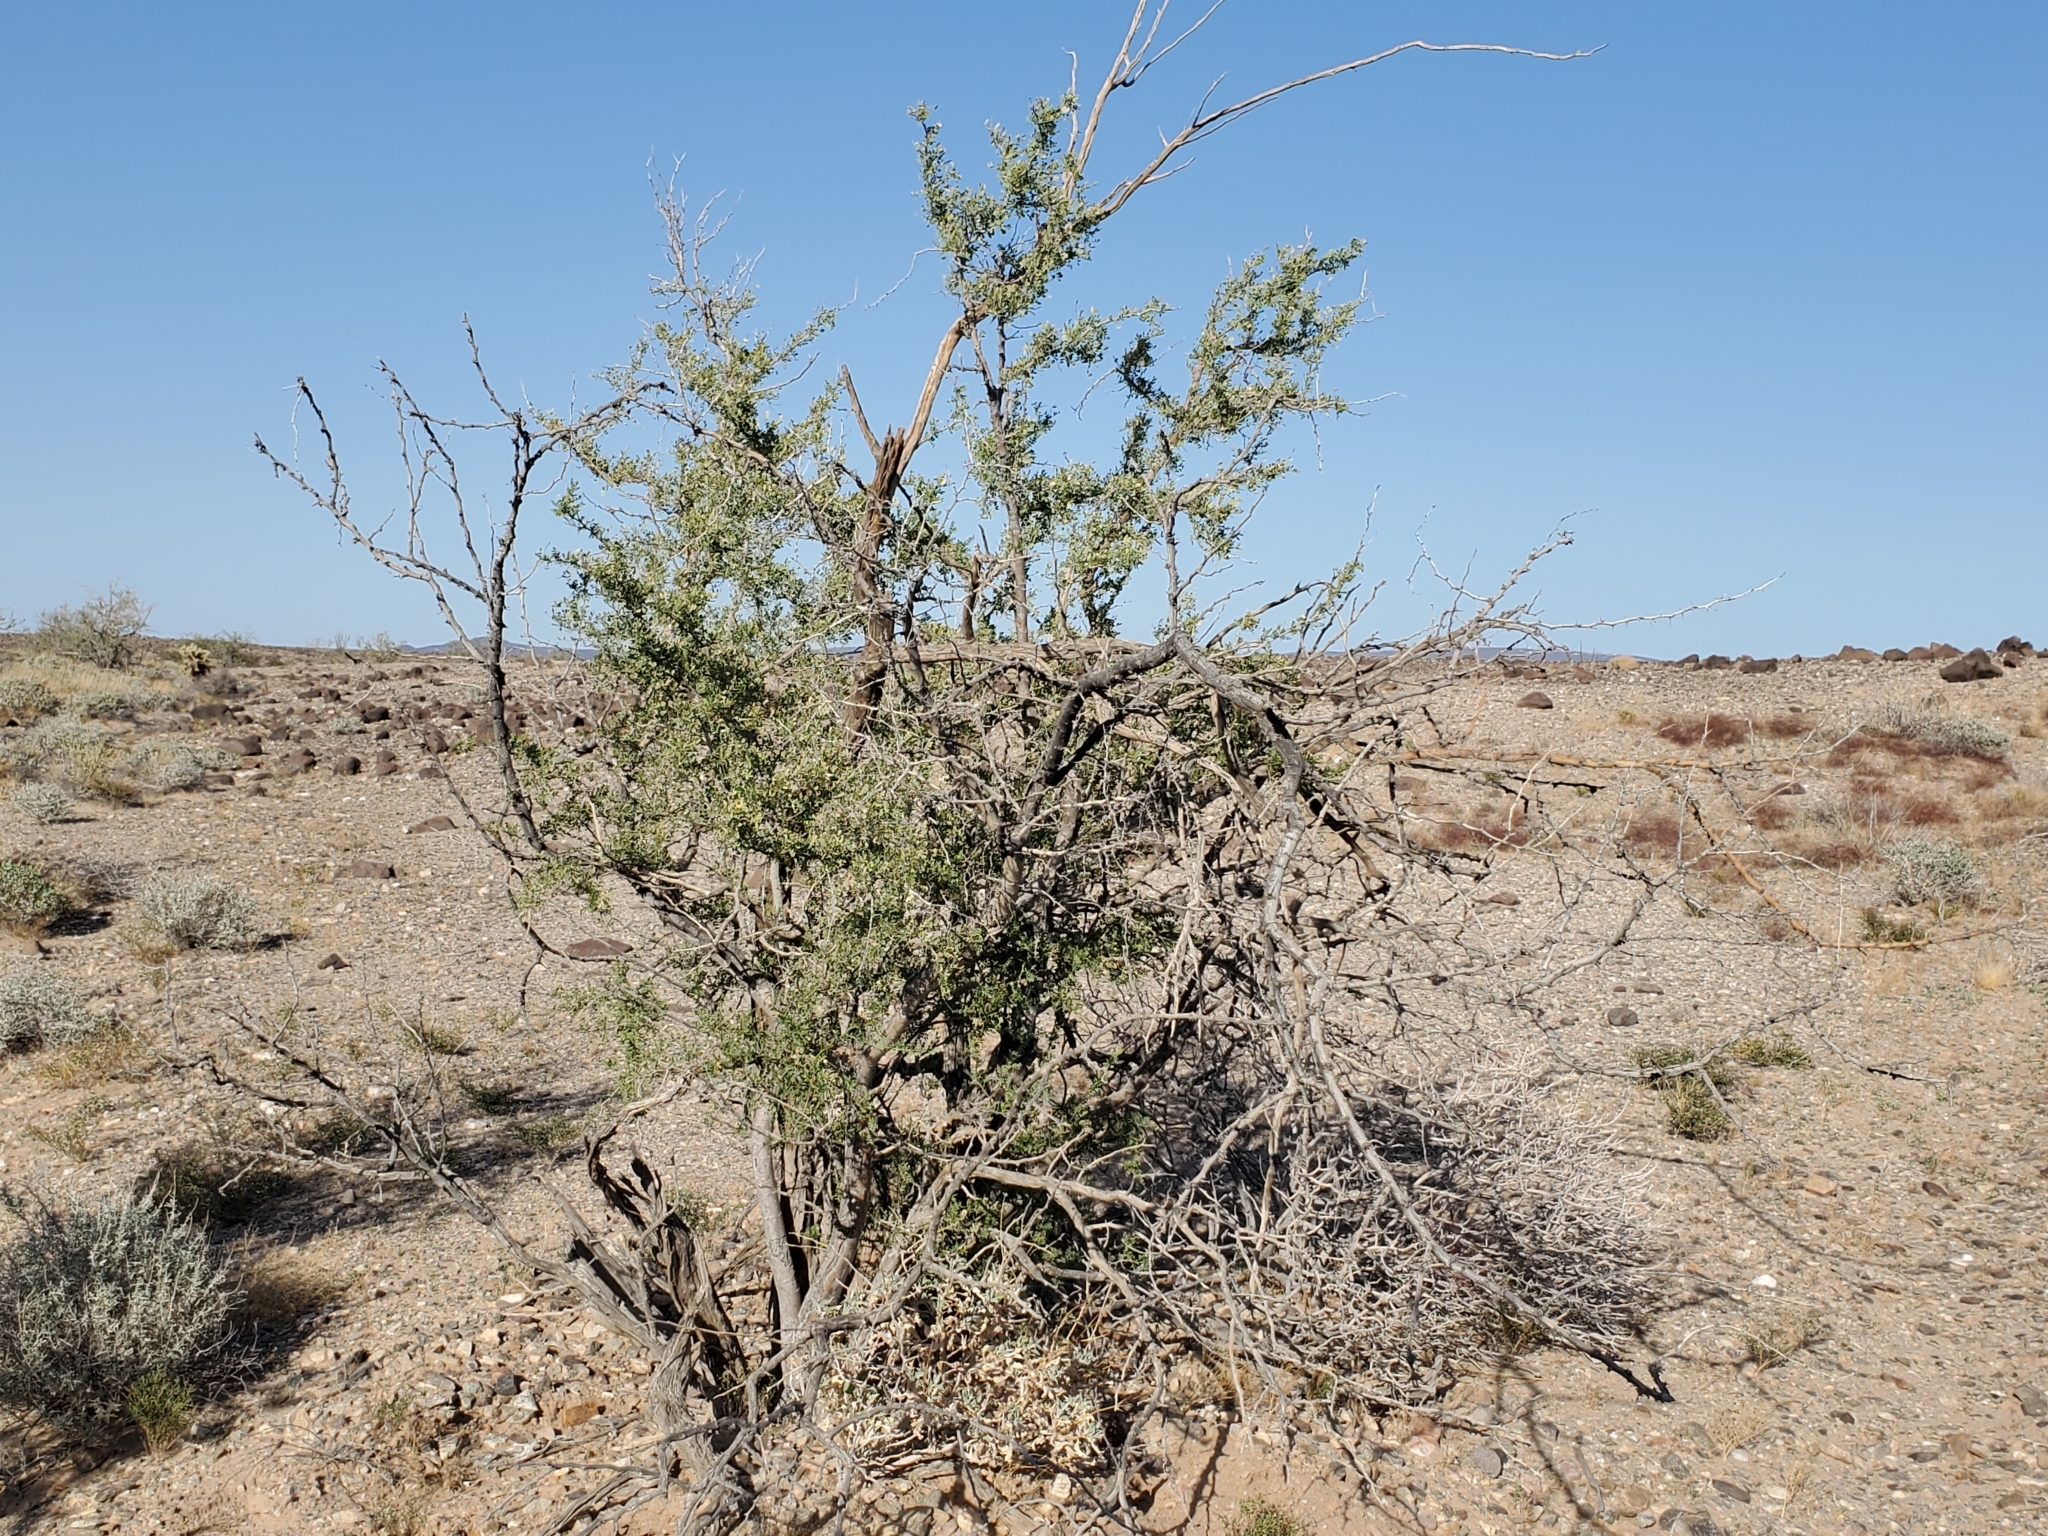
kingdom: Plantae
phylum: Tracheophyta
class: Magnoliopsida
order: Fabales
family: Fabaceae
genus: Olneya
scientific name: Olneya tesota
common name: Desert ironwood
